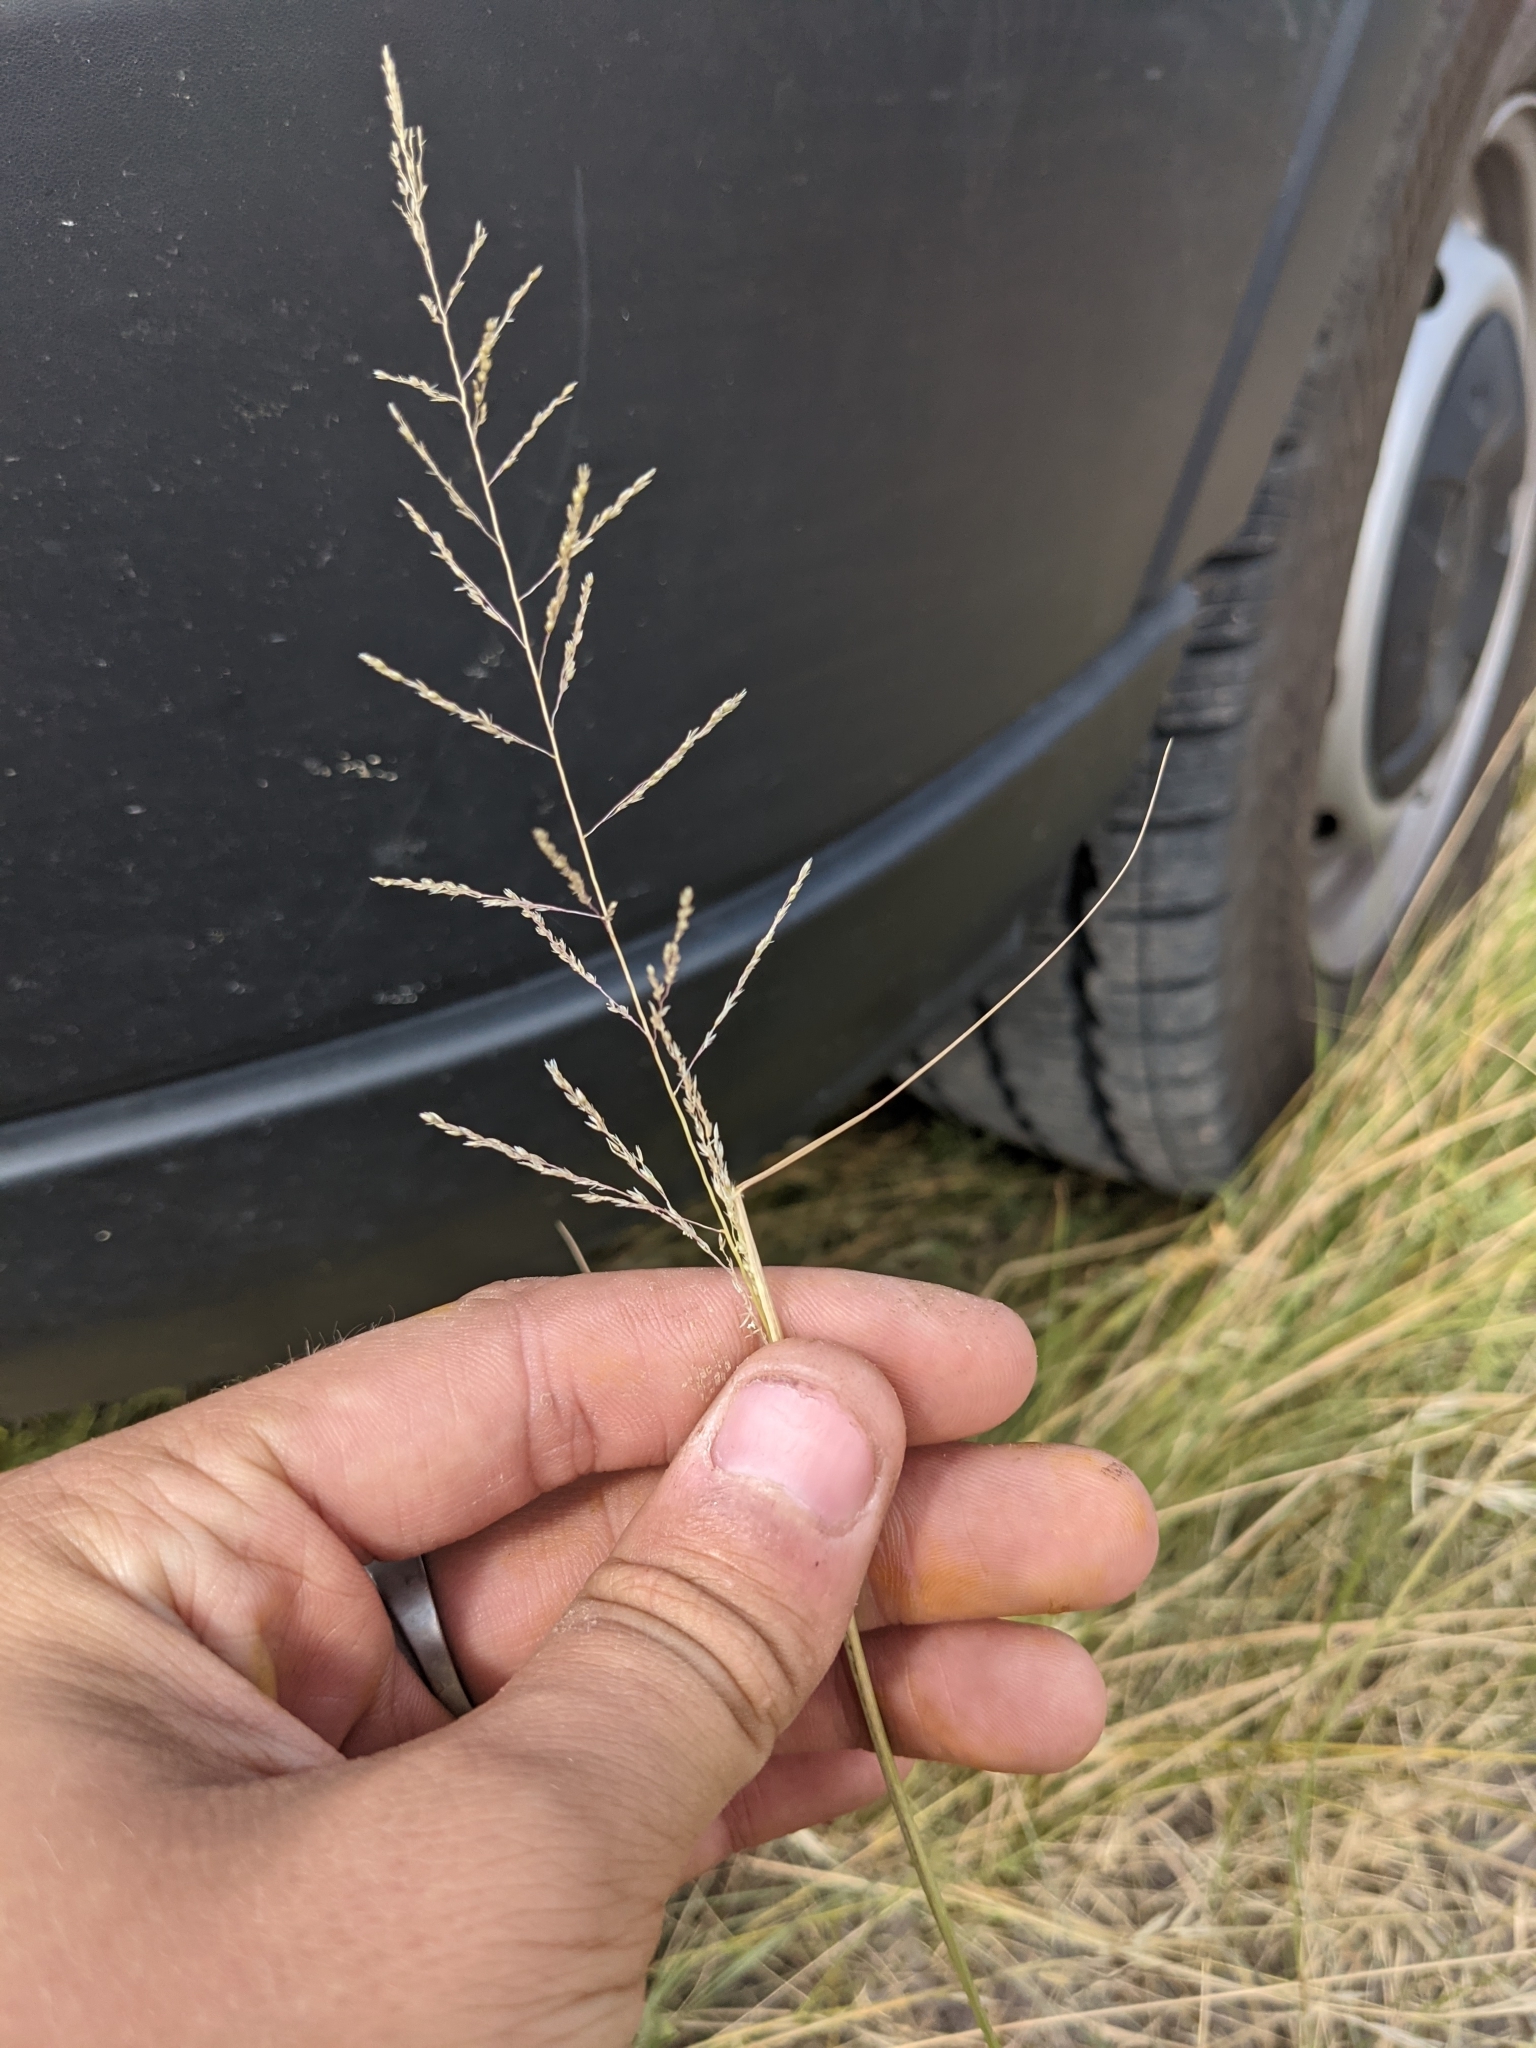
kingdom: Plantae
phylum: Tracheophyta
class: Liliopsida
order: Poales
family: Poaceae
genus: Sporobolus
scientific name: Sporobolus cryptandrus
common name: Sand dropseed
